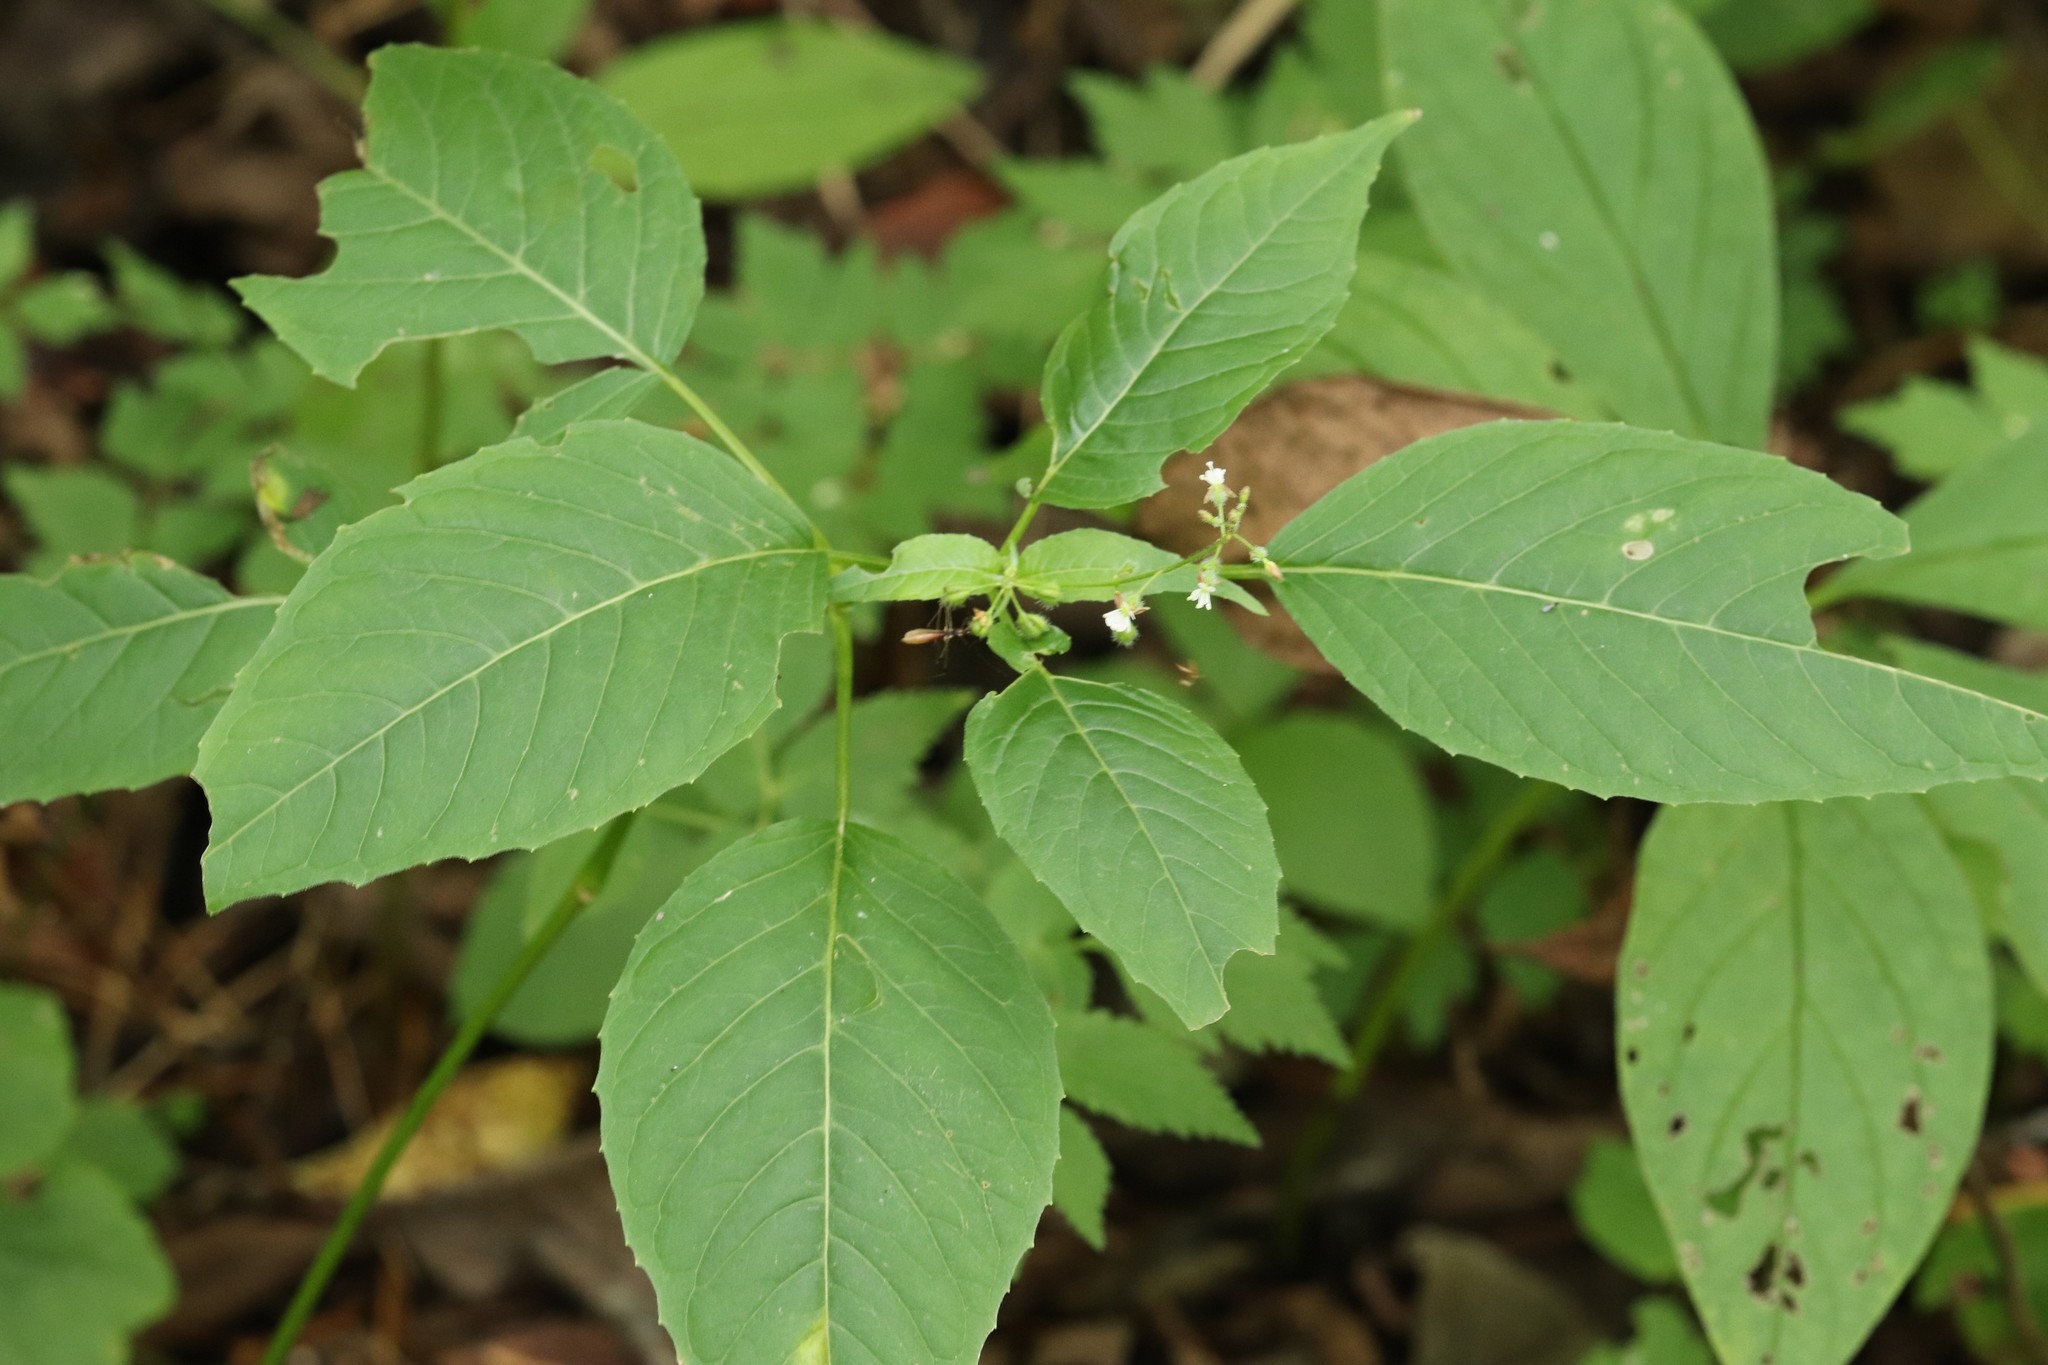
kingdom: Plantae
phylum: Tracheophyta
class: Magnoliopsida
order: Myrtales
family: Onagraceae
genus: Circaea
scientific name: Circaea canadensis
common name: Broad-leaved enchanter's nightshade
